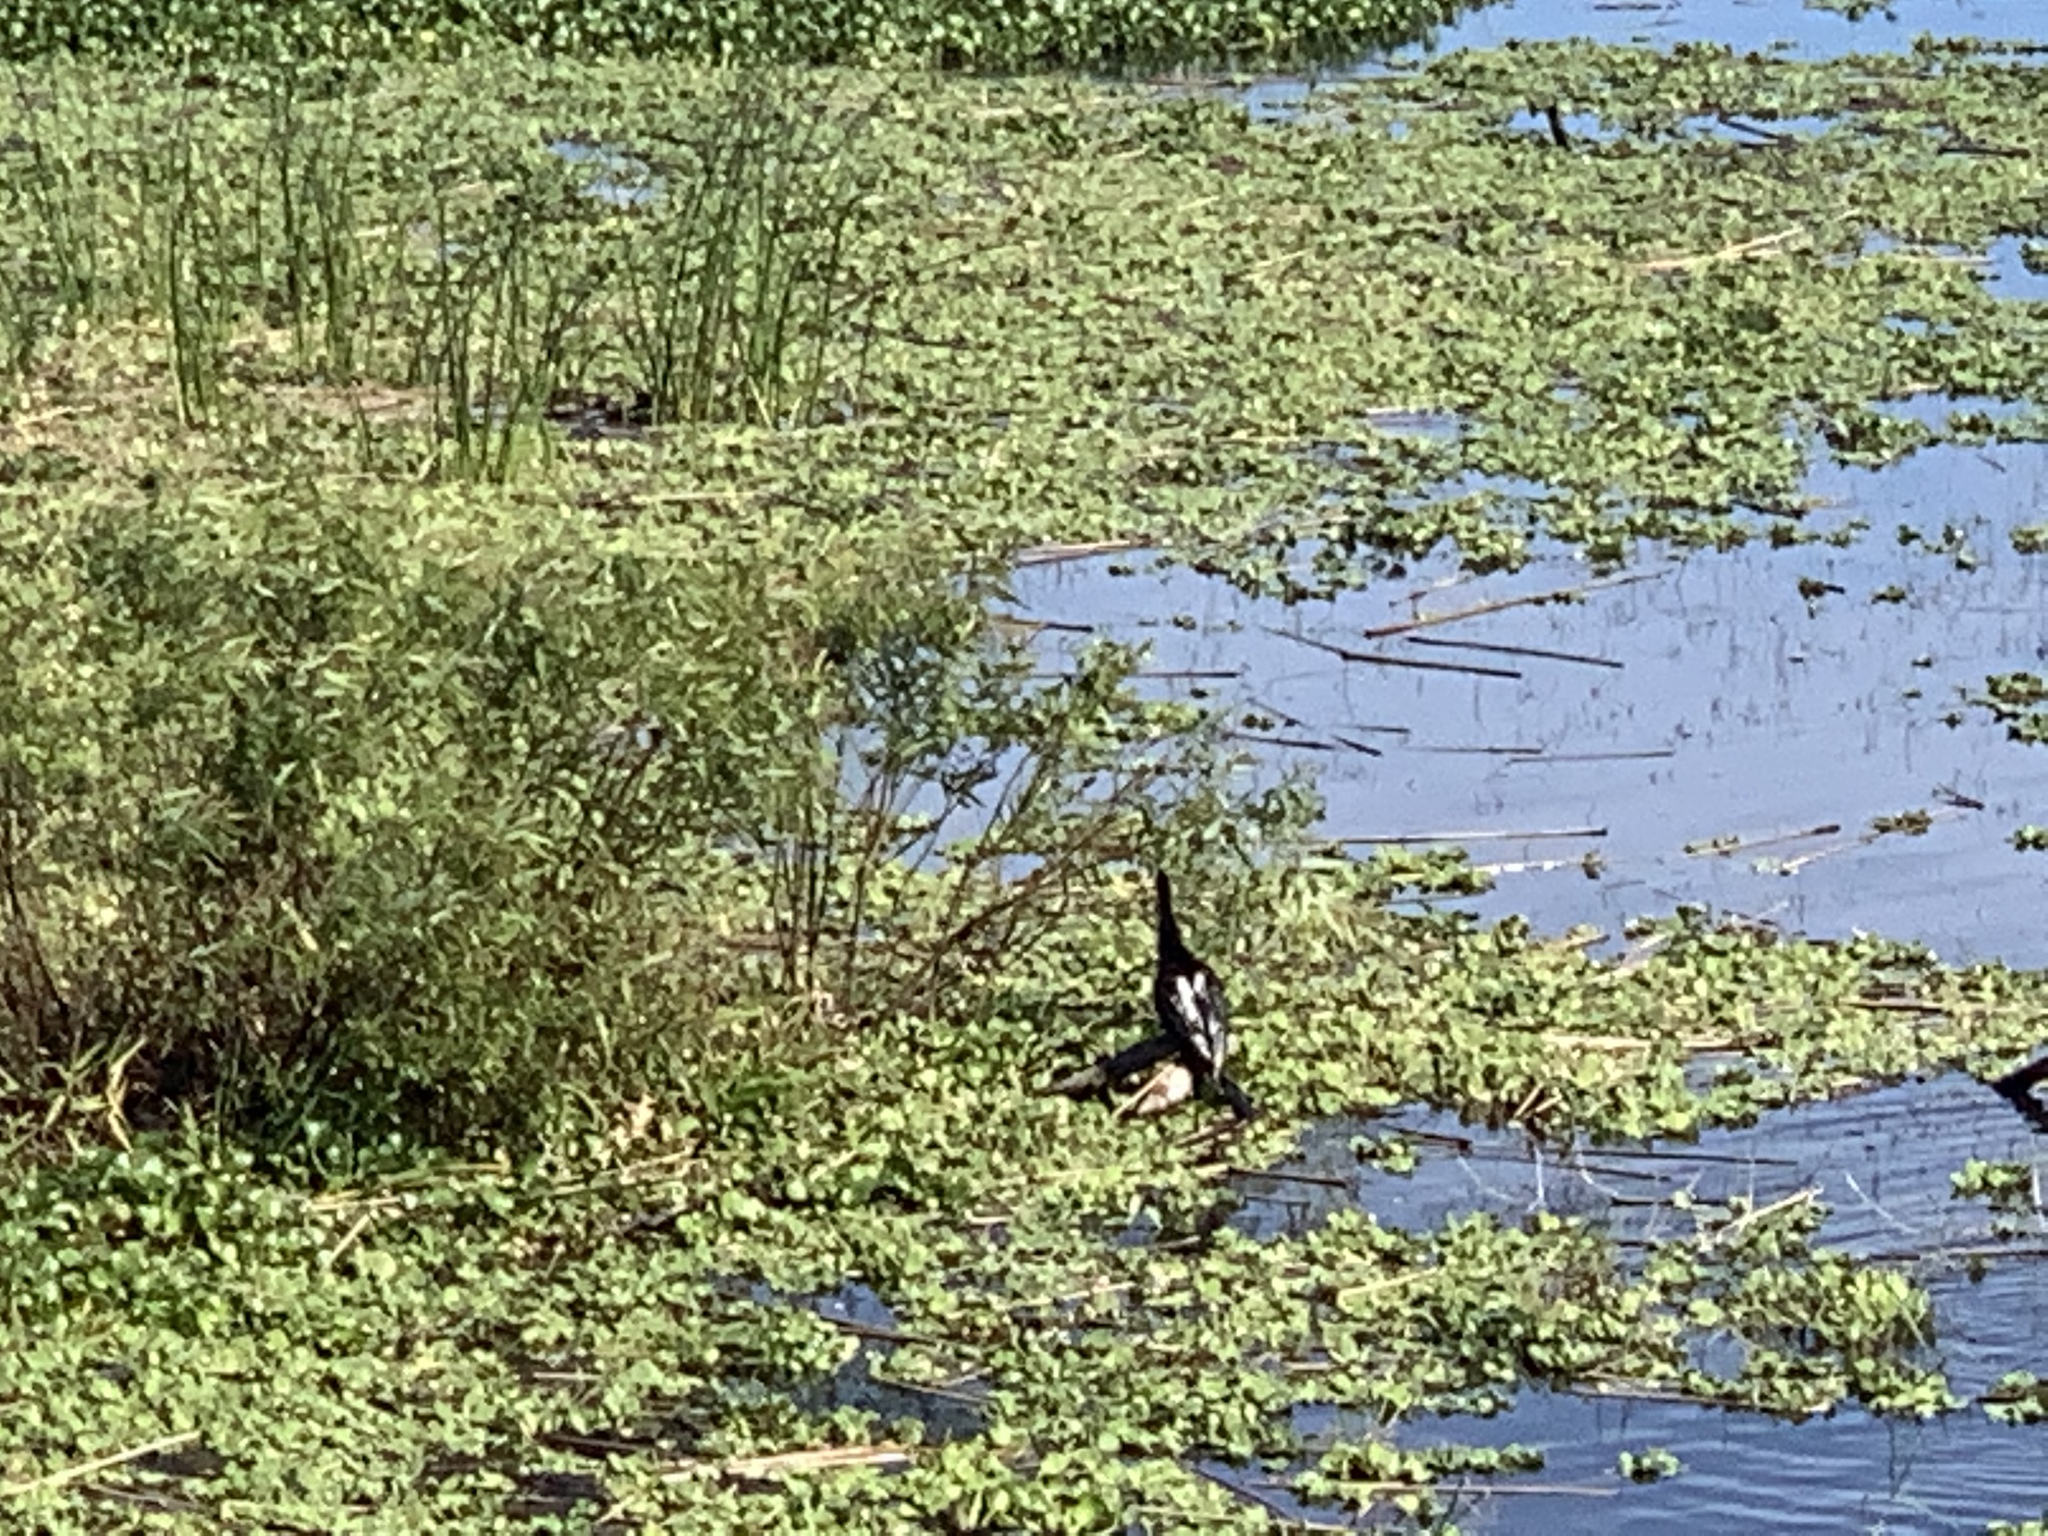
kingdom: Animalia
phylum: Chordata
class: Aves
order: Suliformes
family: Anhingidae
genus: Anhinga
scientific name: Anhinga anhinga
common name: Anhinga
